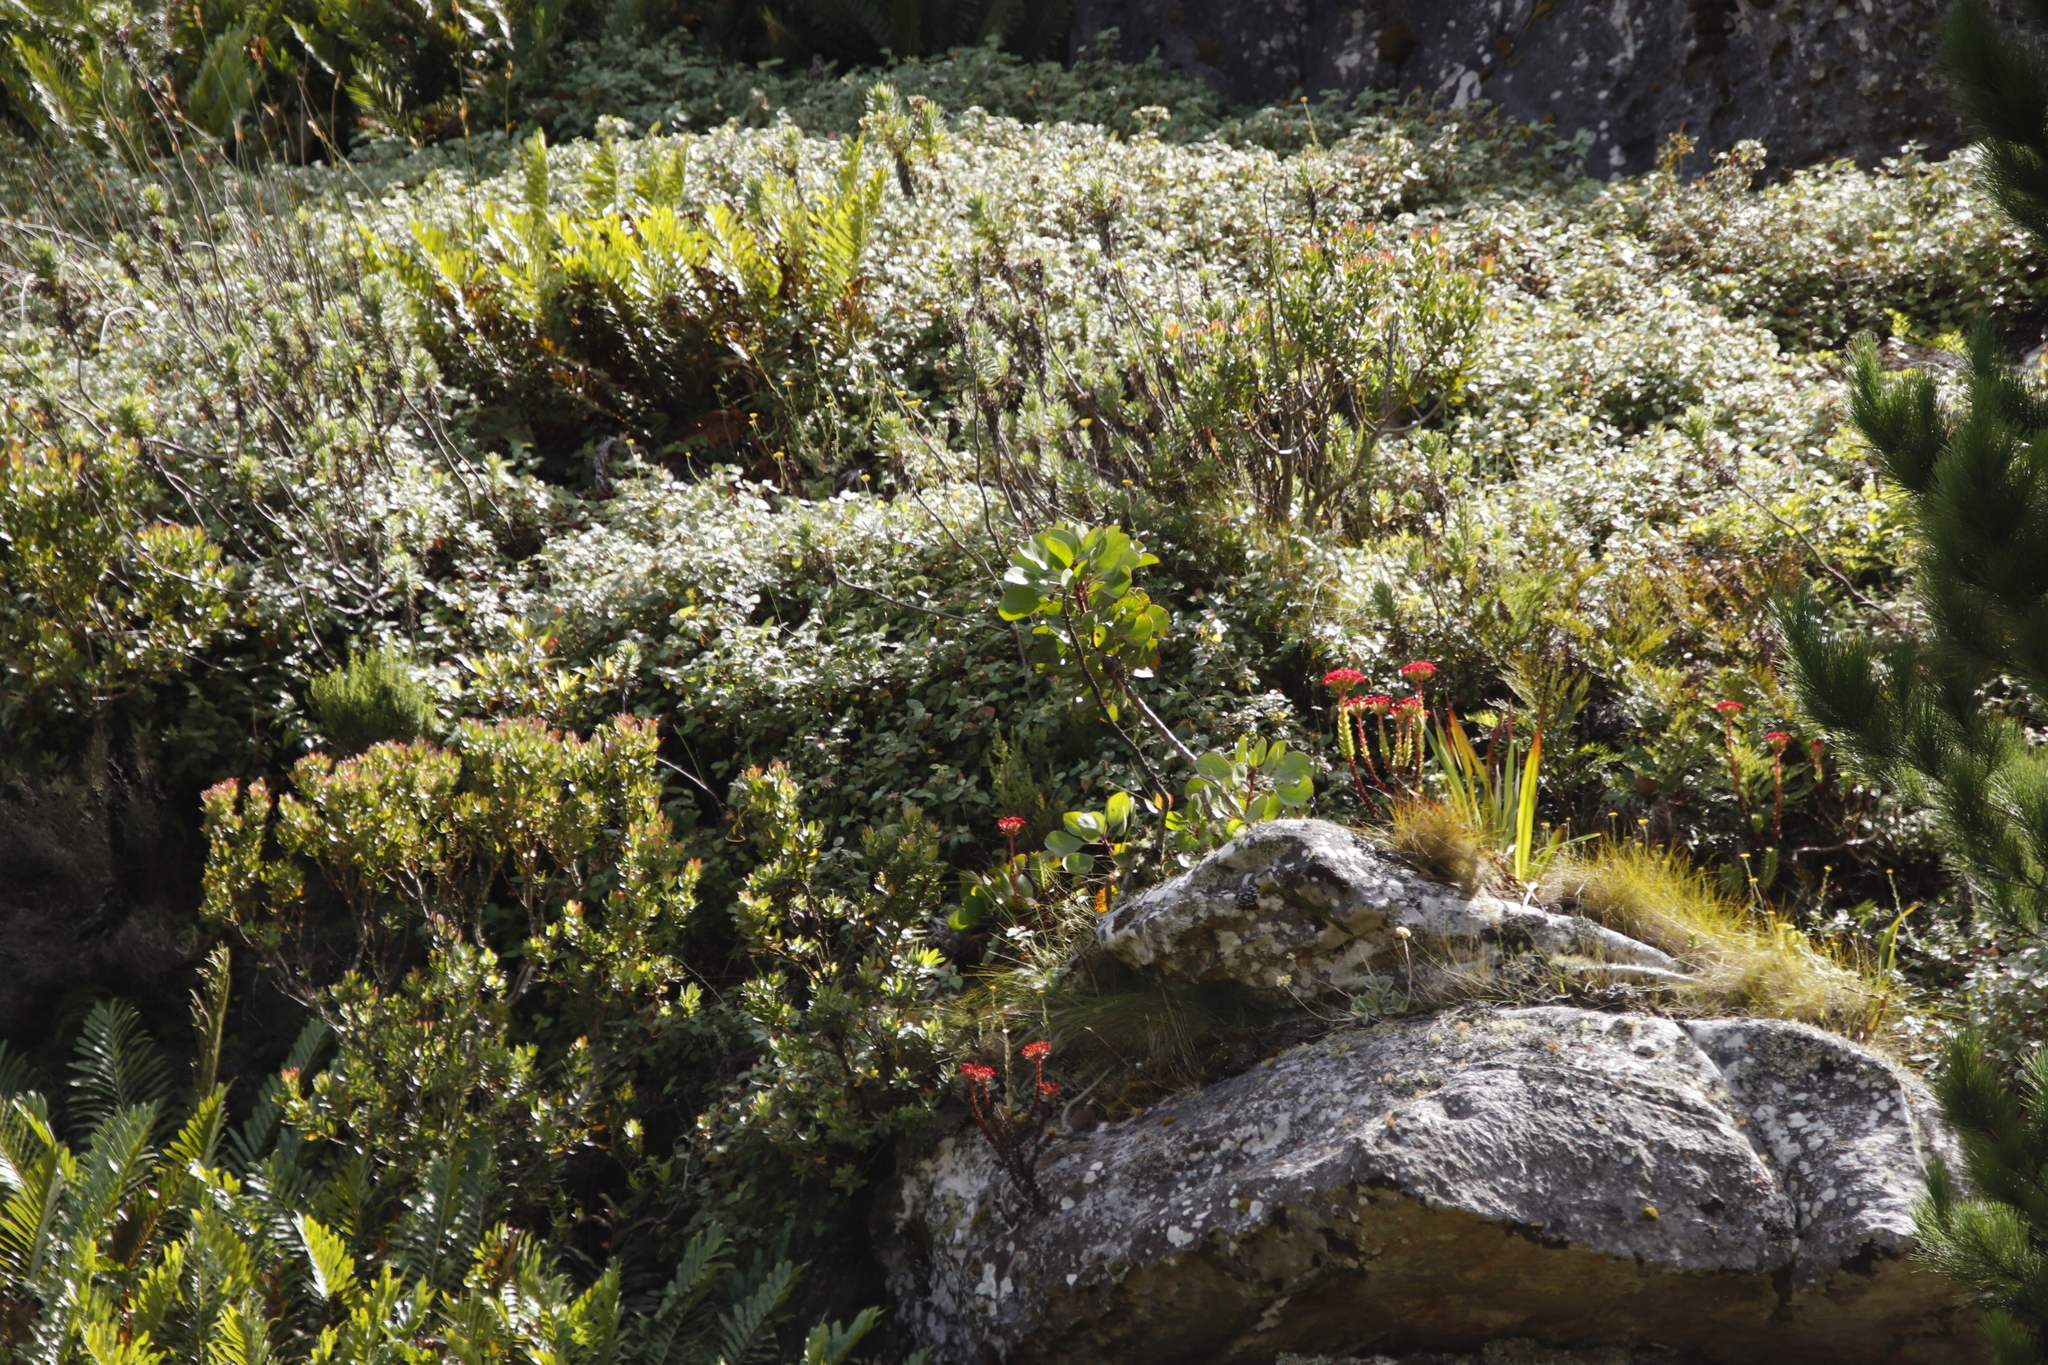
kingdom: Plantae
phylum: Tracheophyta
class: Polypodiopsida
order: Polypodiales
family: Blechnaceae
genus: Lomariocycas
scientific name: Lomariocycas tabularis
